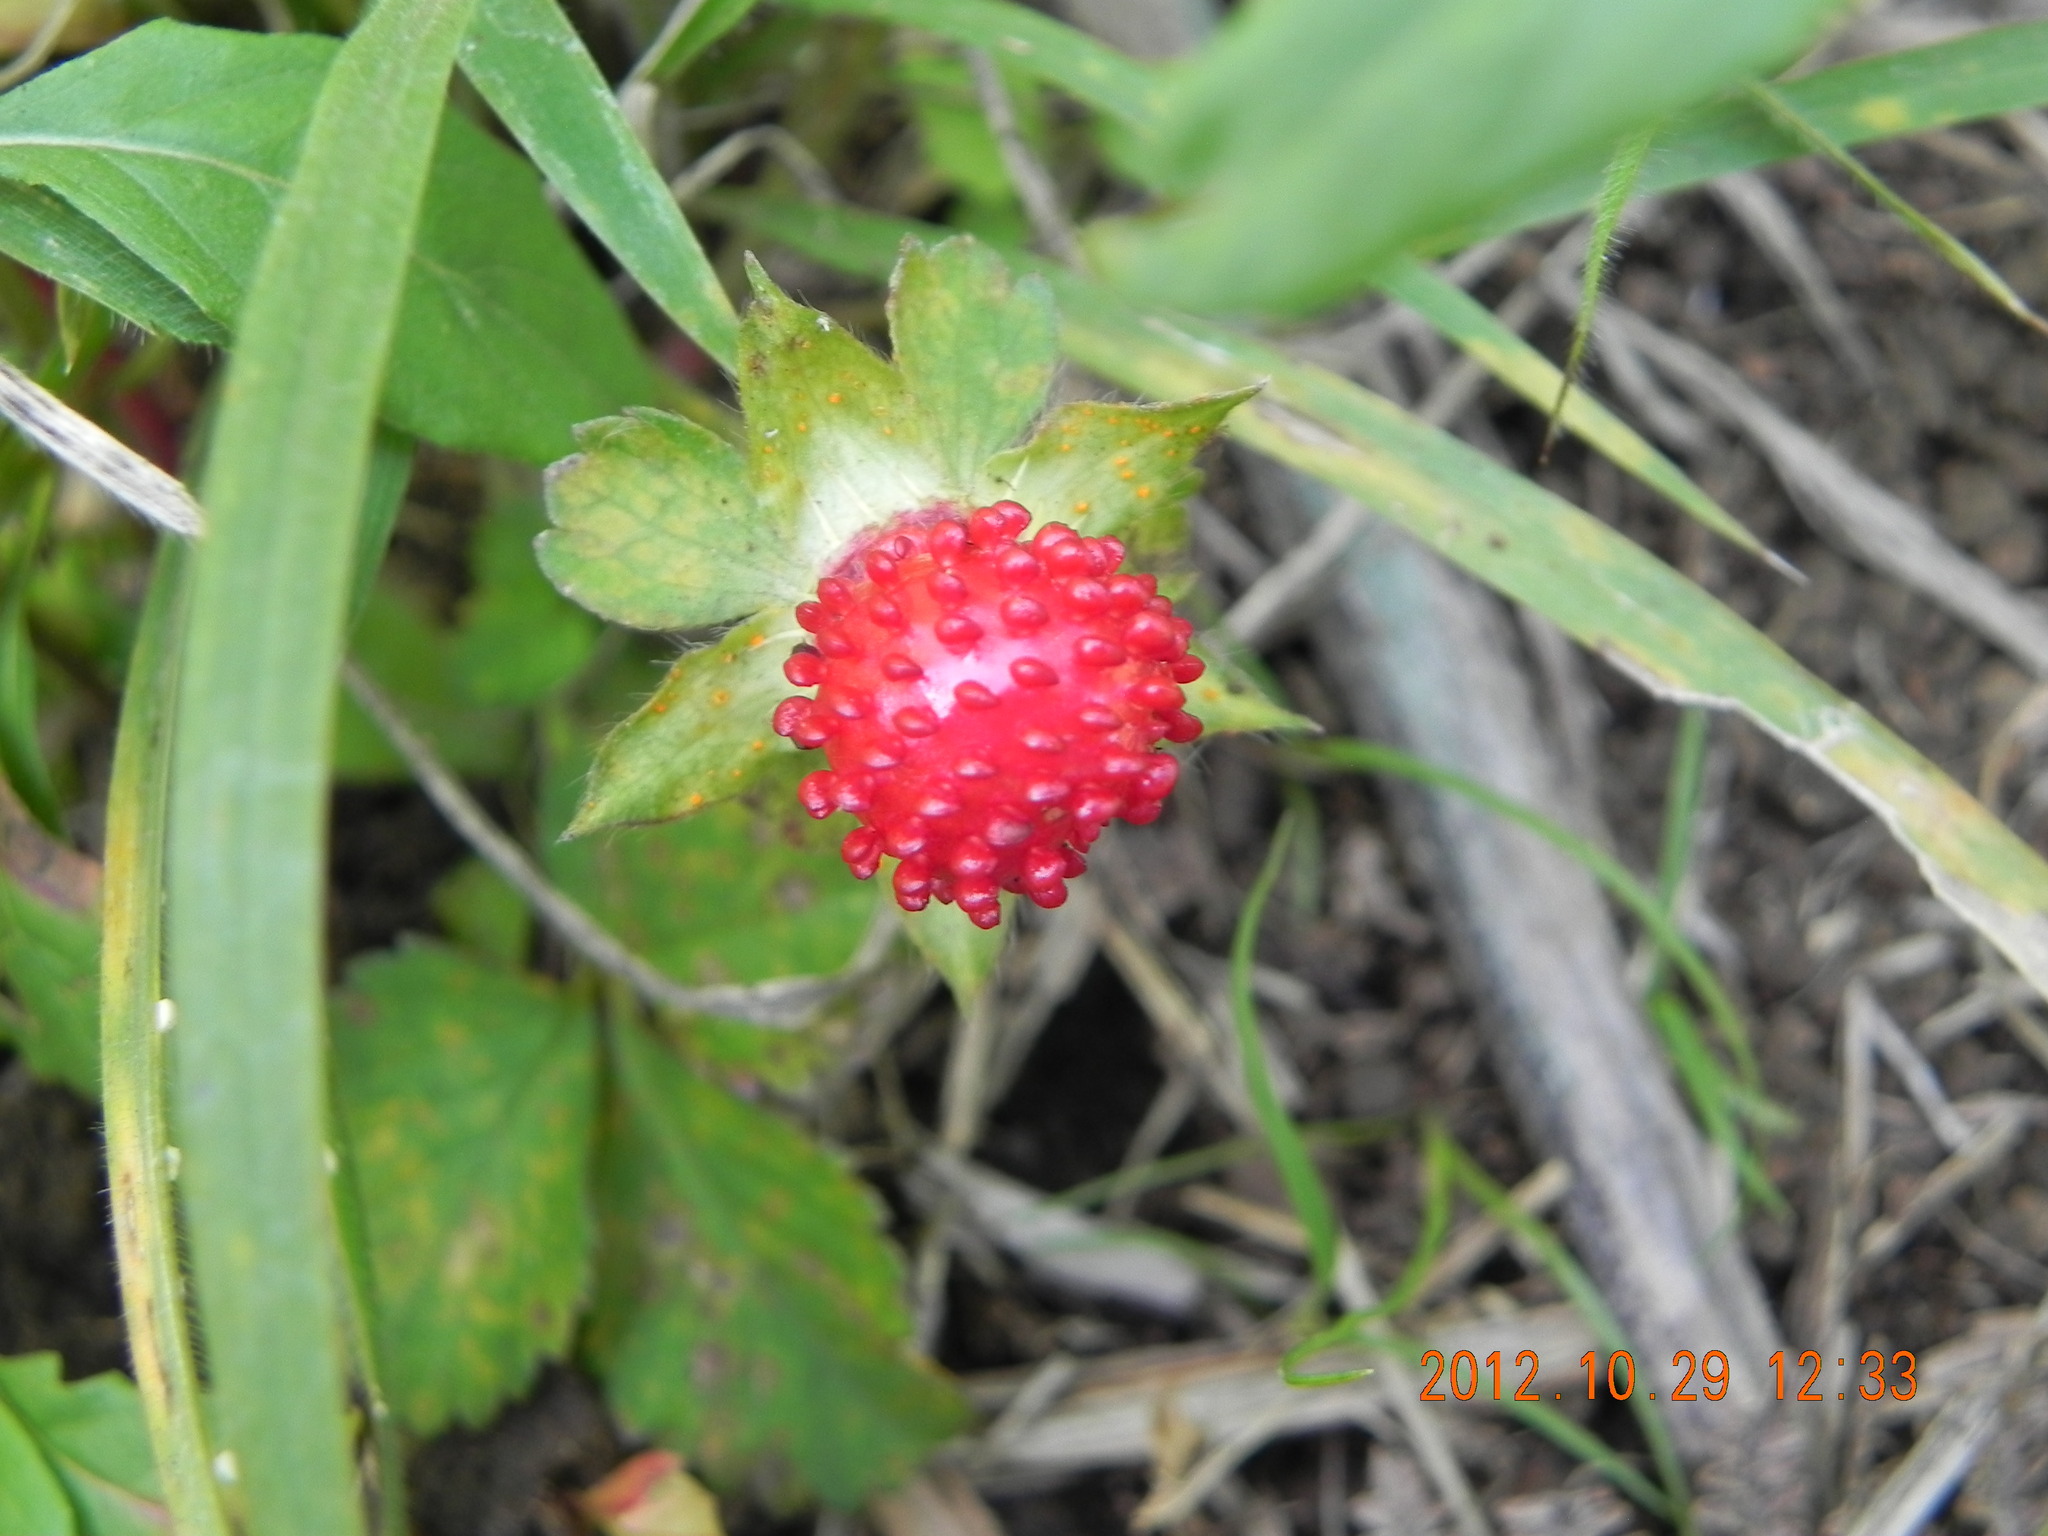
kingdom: Plantae
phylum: Tracheophyta
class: Magnoliopsida
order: Rosales
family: Rosaceae
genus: Potentilla
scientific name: Potentilla indica
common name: Yellow-flowered strawberry
